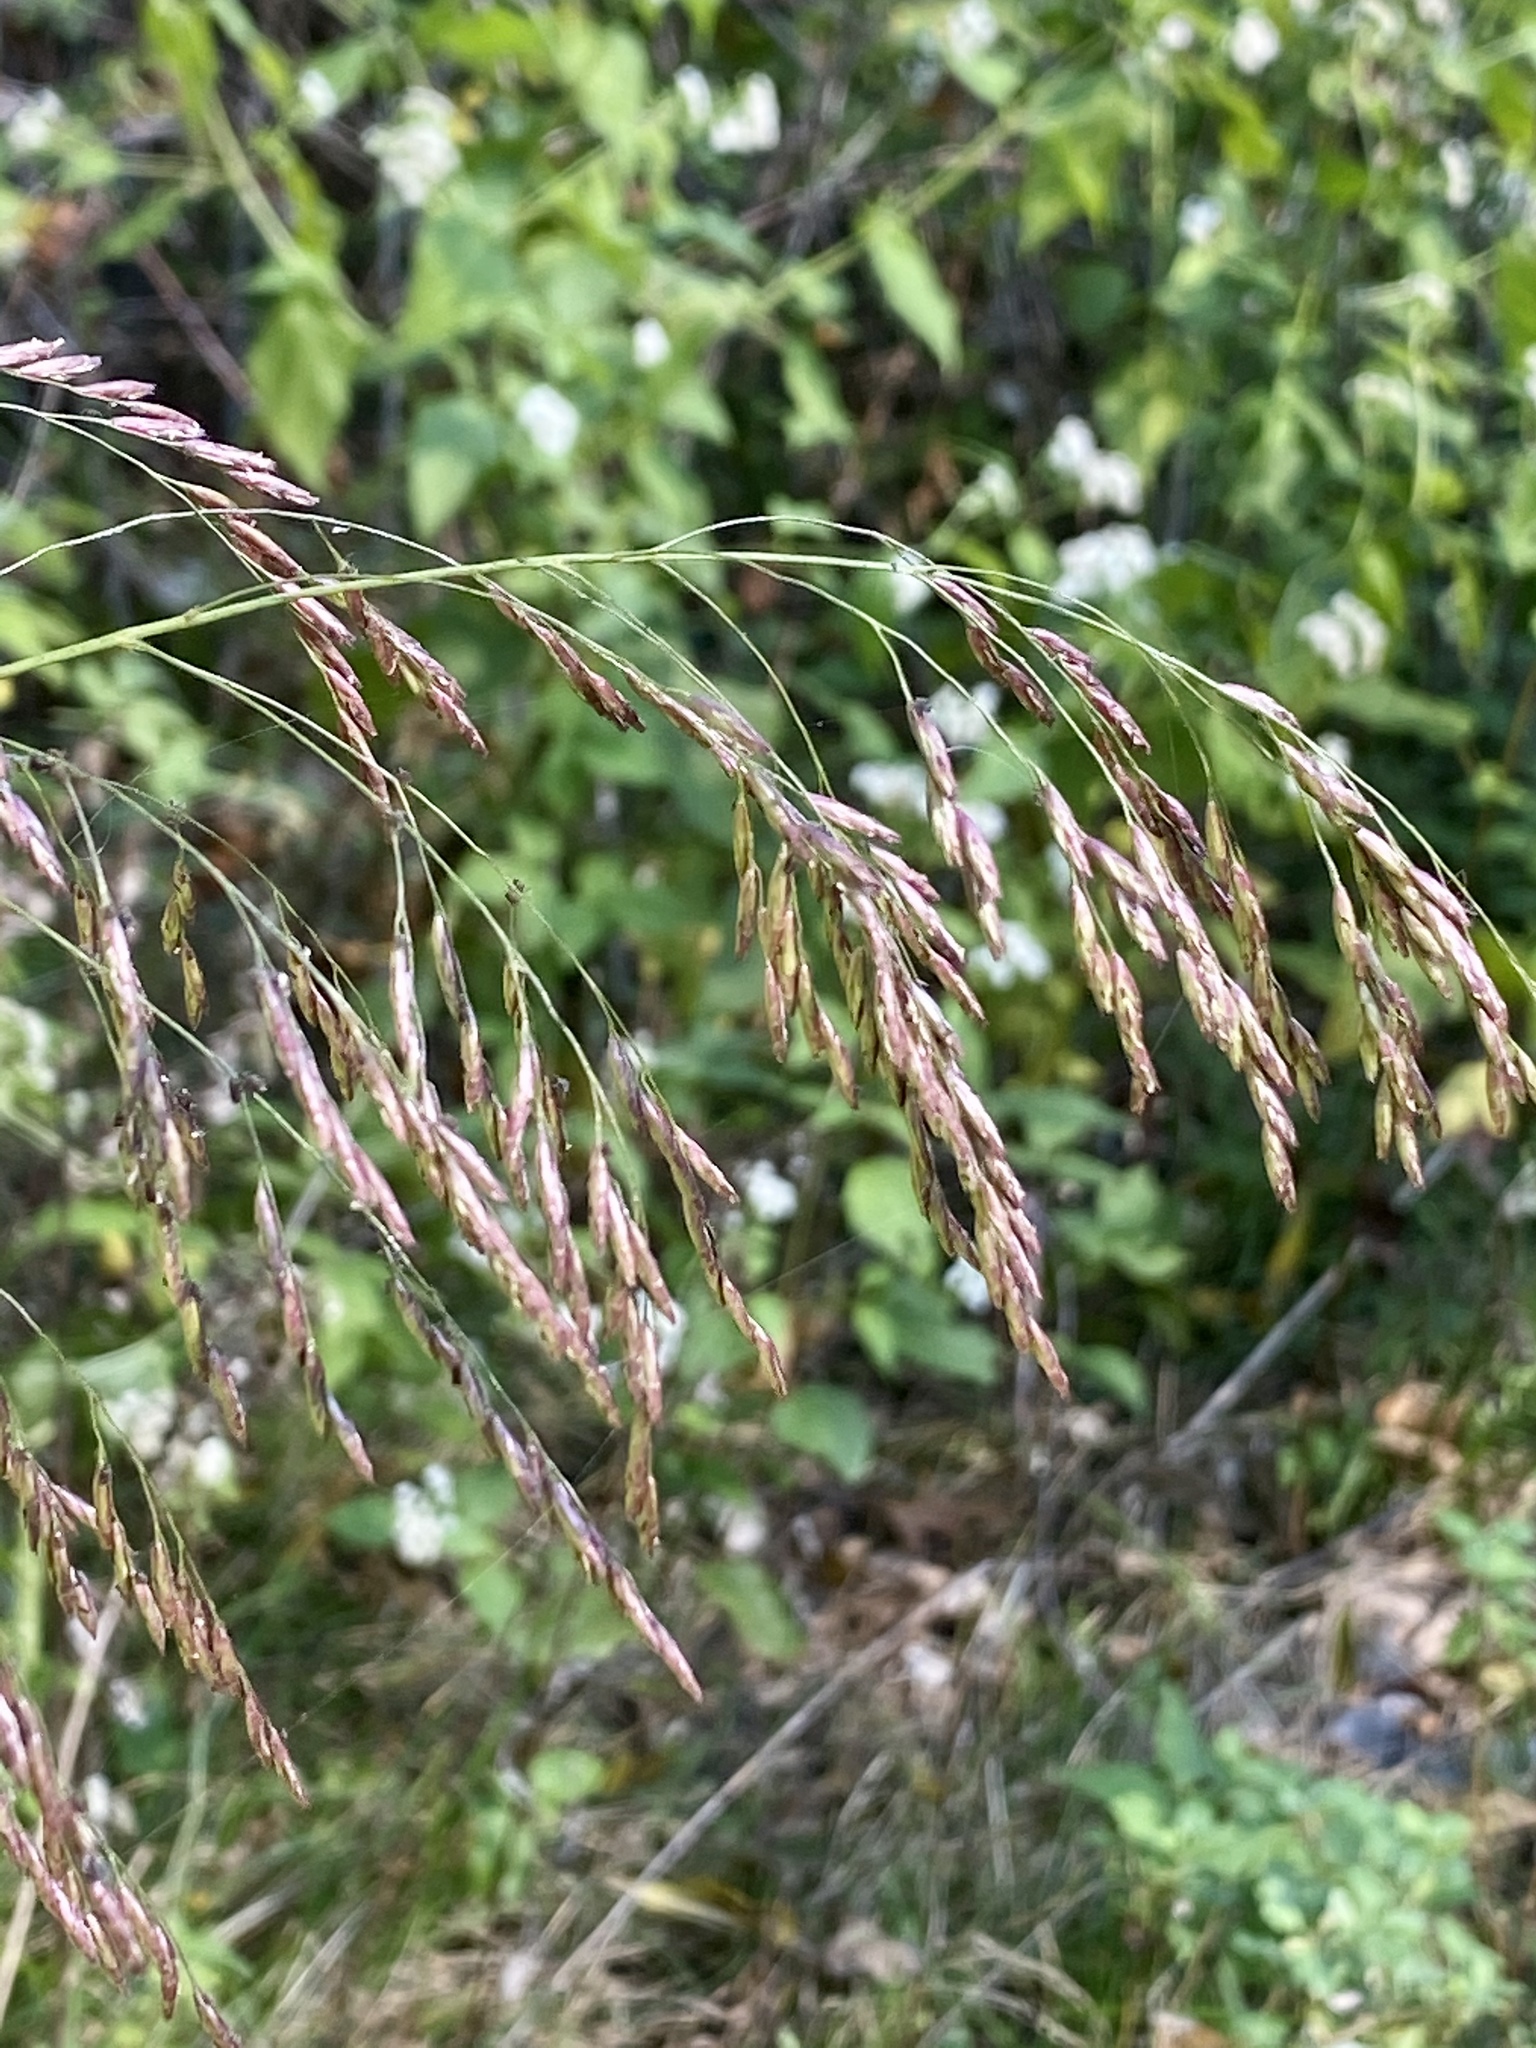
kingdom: Plantae
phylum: Tracheophyta
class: Liliopsida
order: Poales
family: Poaceae
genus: Tridens
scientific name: Tridens flavus
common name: Purpletop
